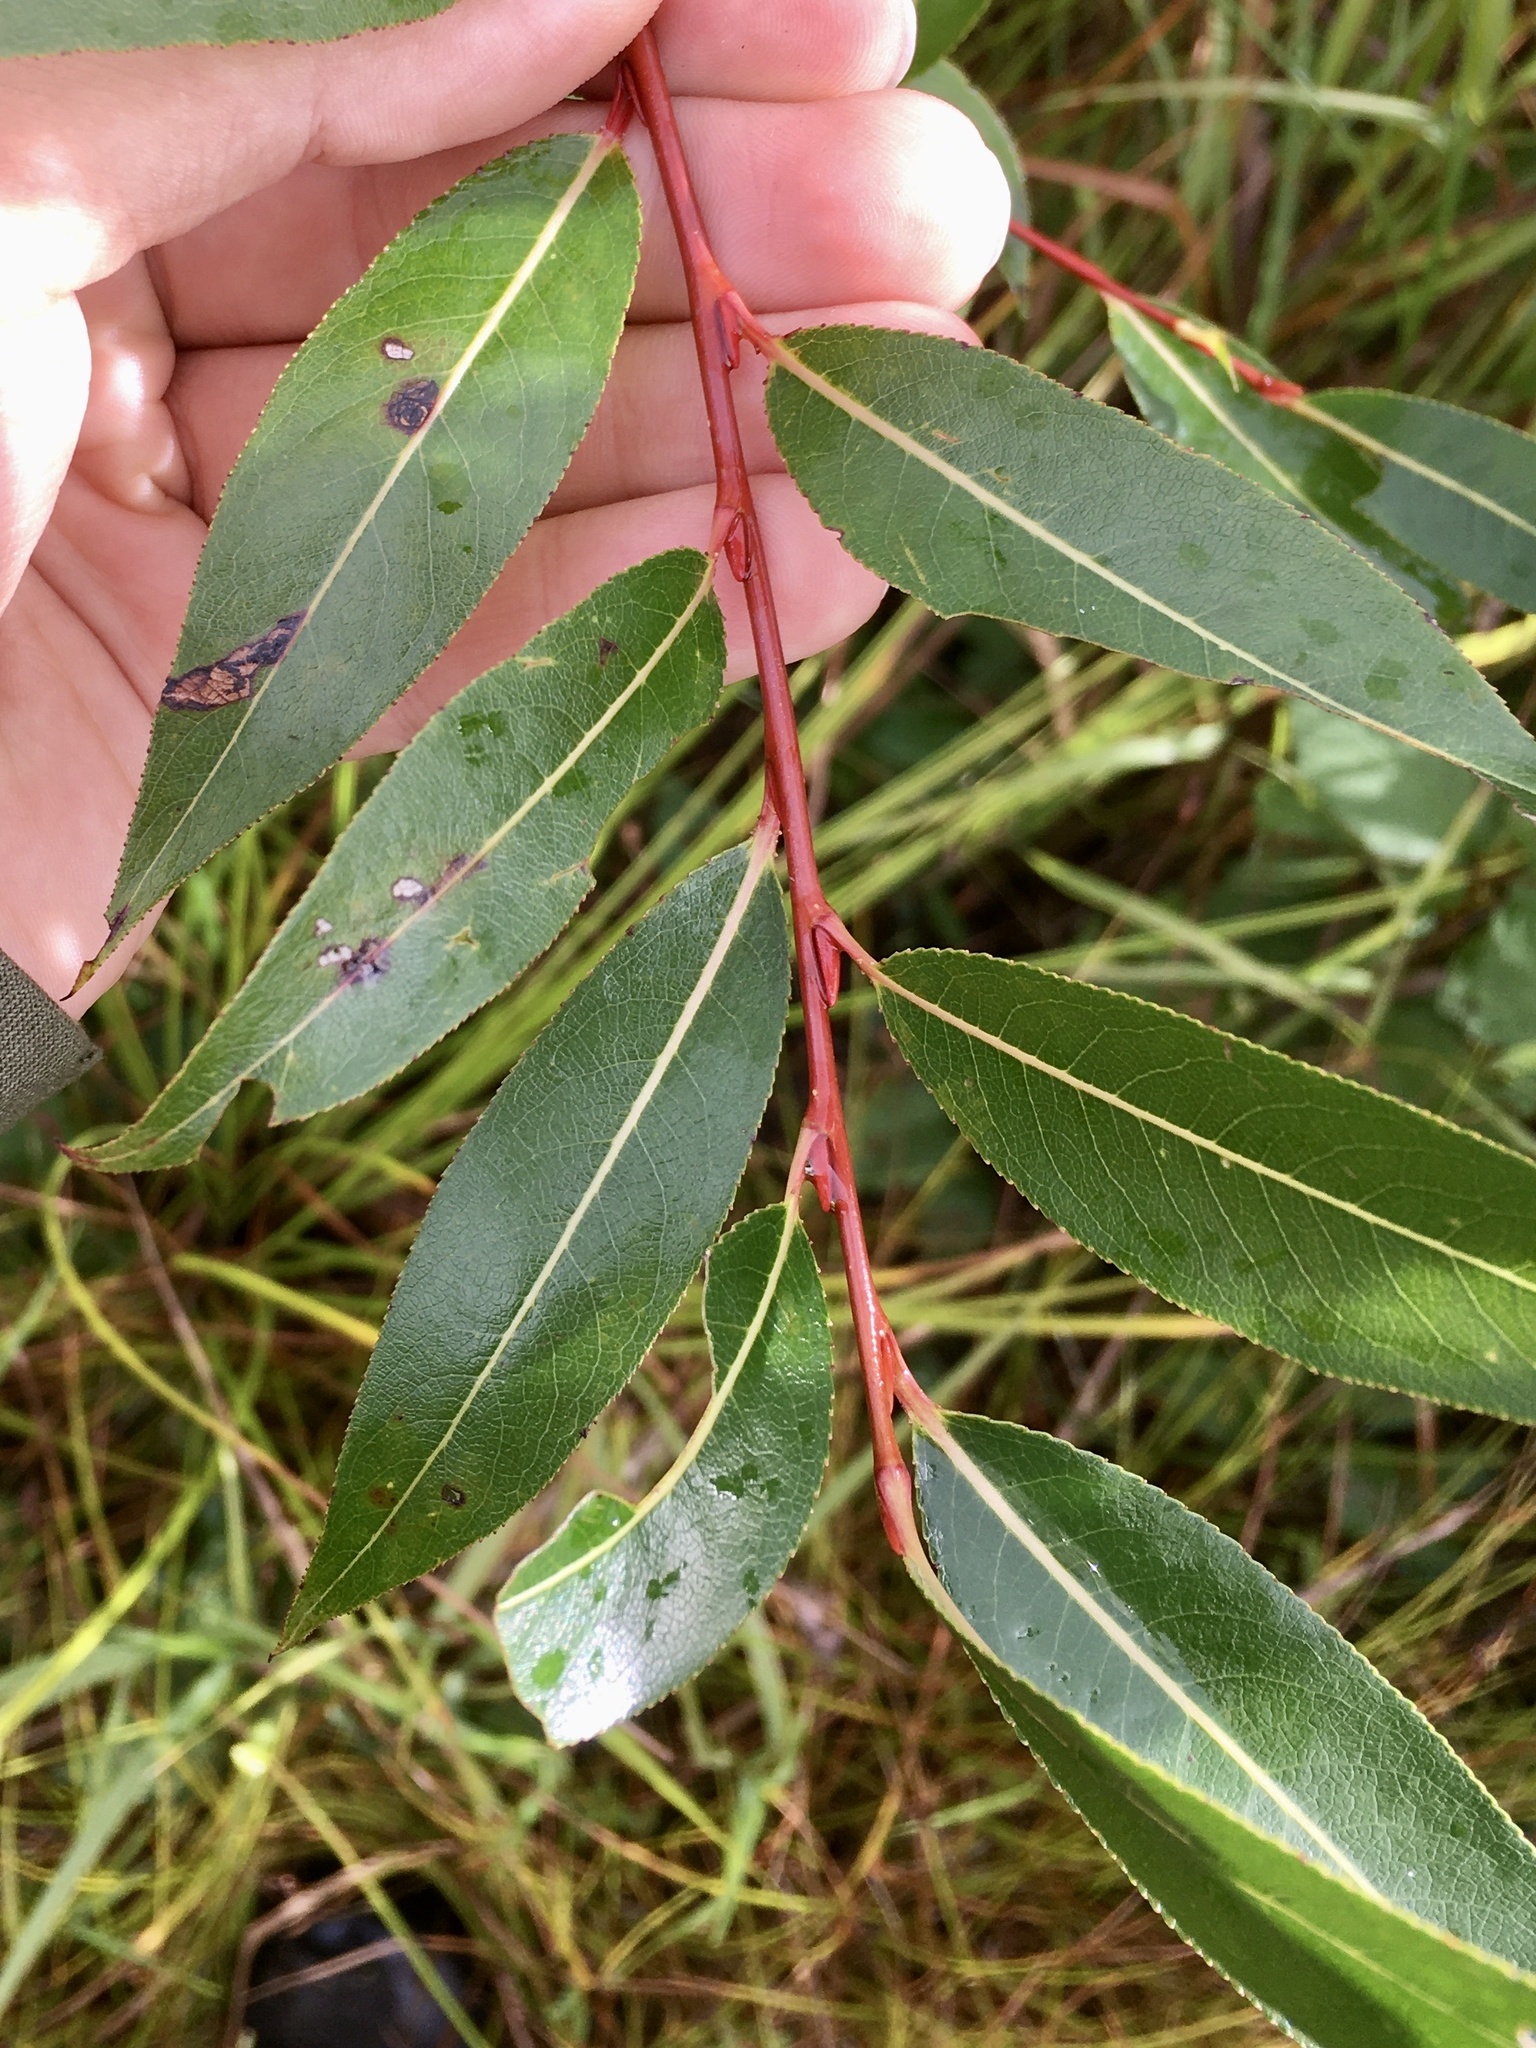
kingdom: Plantae
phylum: Tracheophyta
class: Magnoliopsida
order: Malpighiales
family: Salicaceae
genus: Salix
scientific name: Salix serissima
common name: Autumn willow
